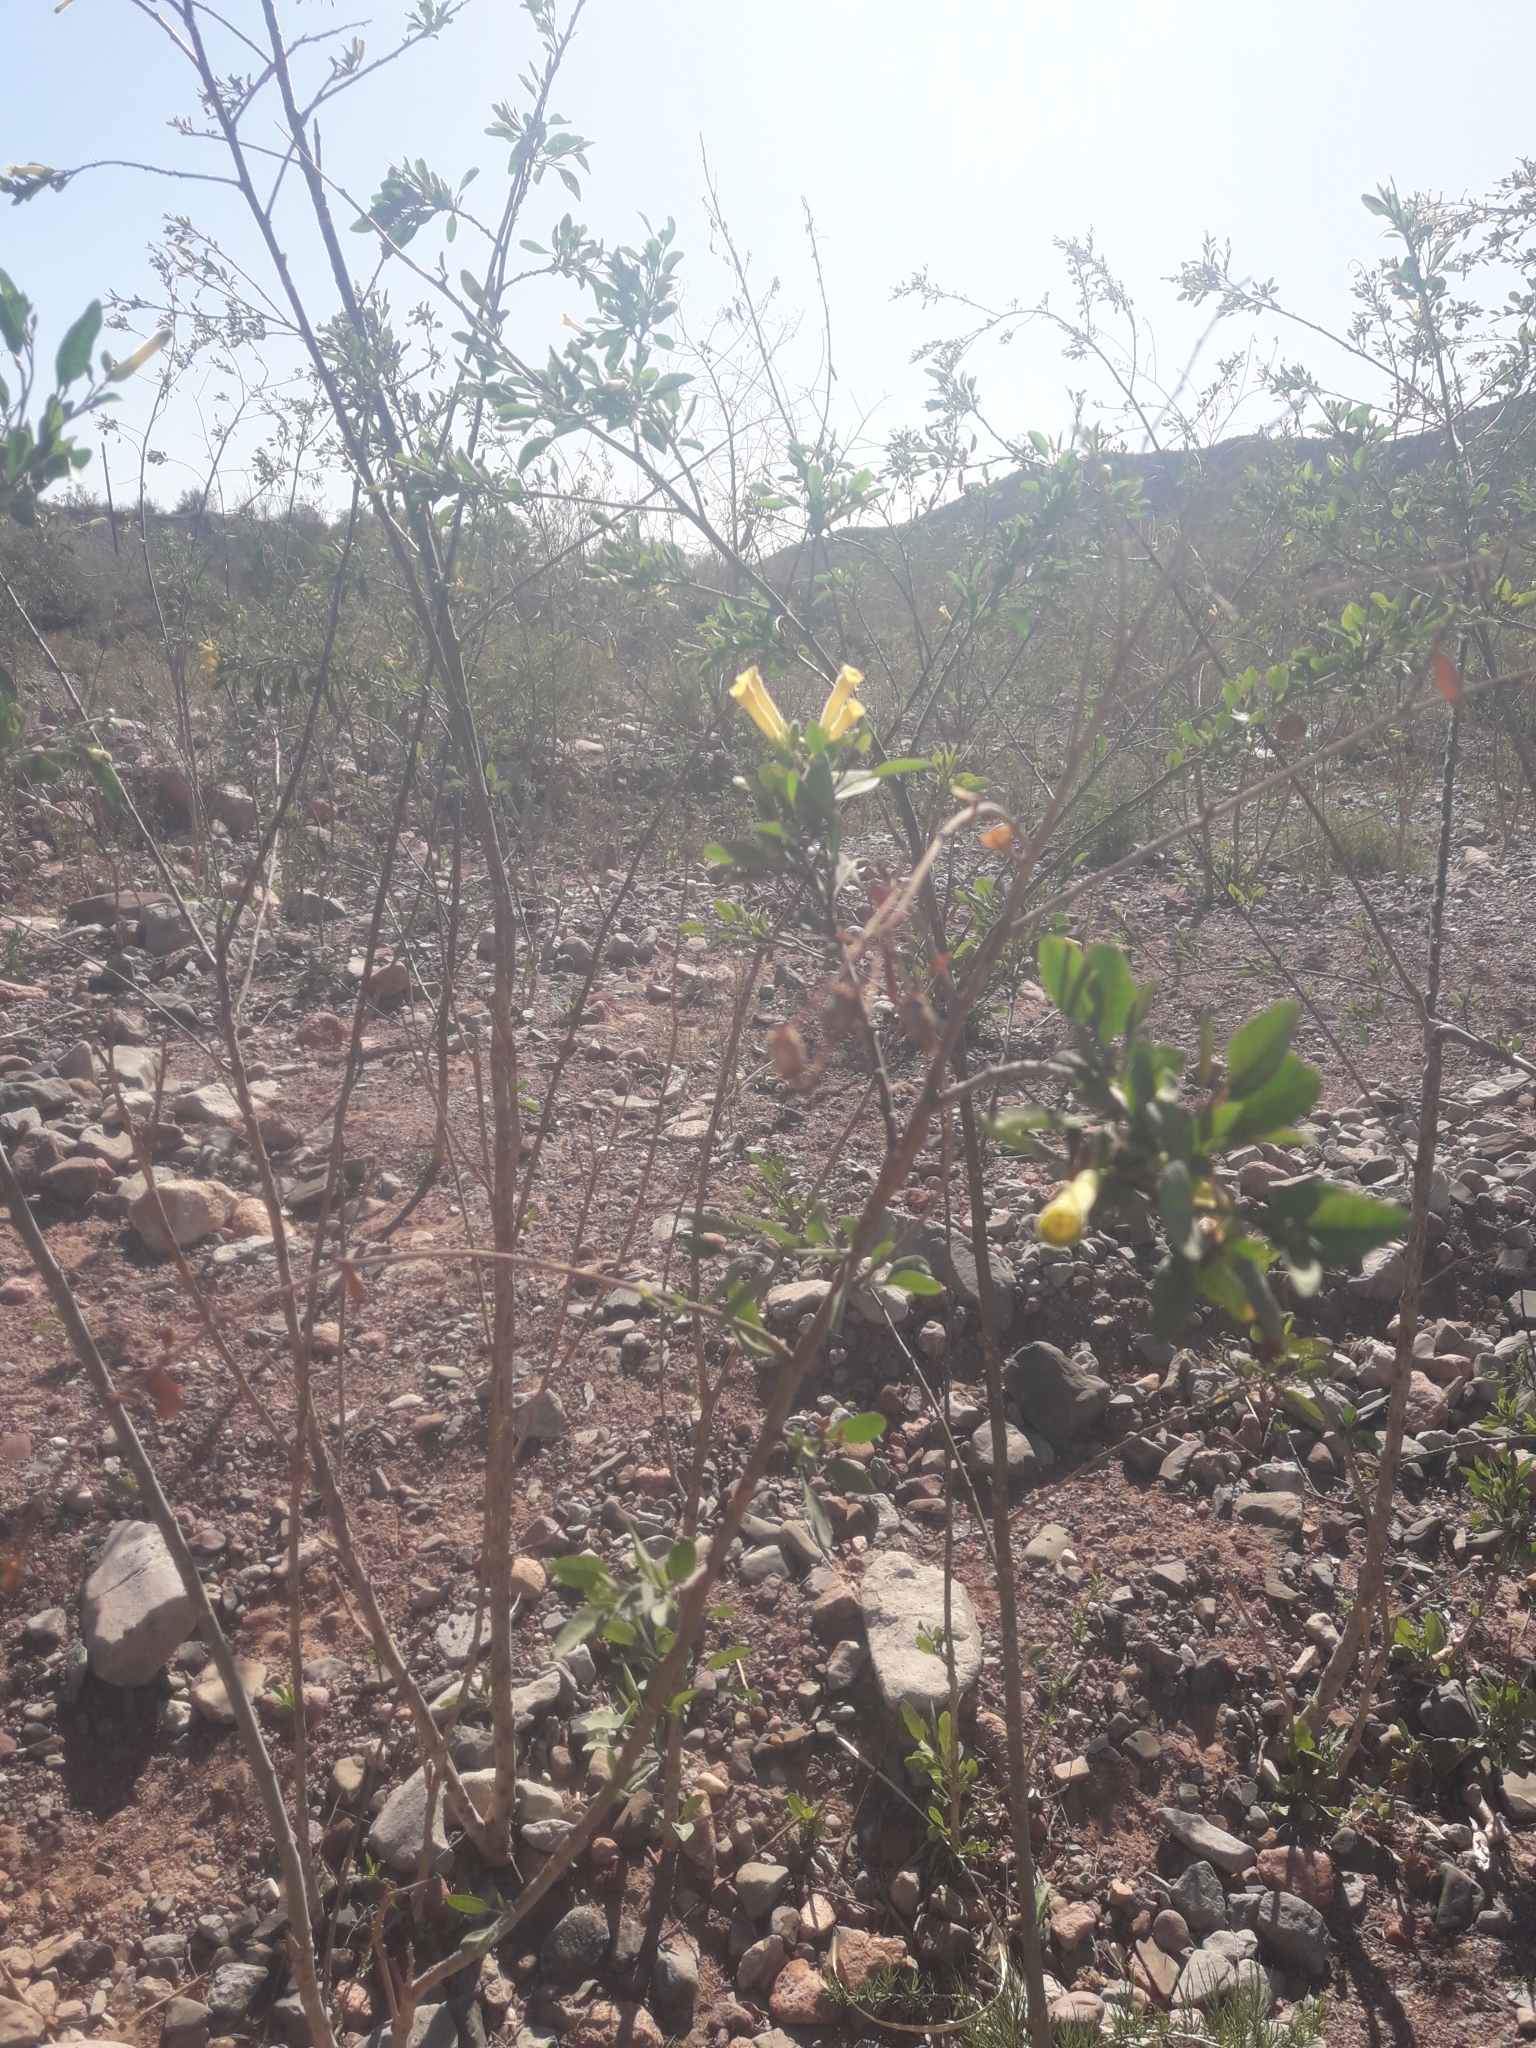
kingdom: Plantae
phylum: Tracheophyta
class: Magnoliopsida
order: Solanales
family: Solanaceae
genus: Nicotiana
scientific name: Nicotiana glauca
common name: Tree tobacco
